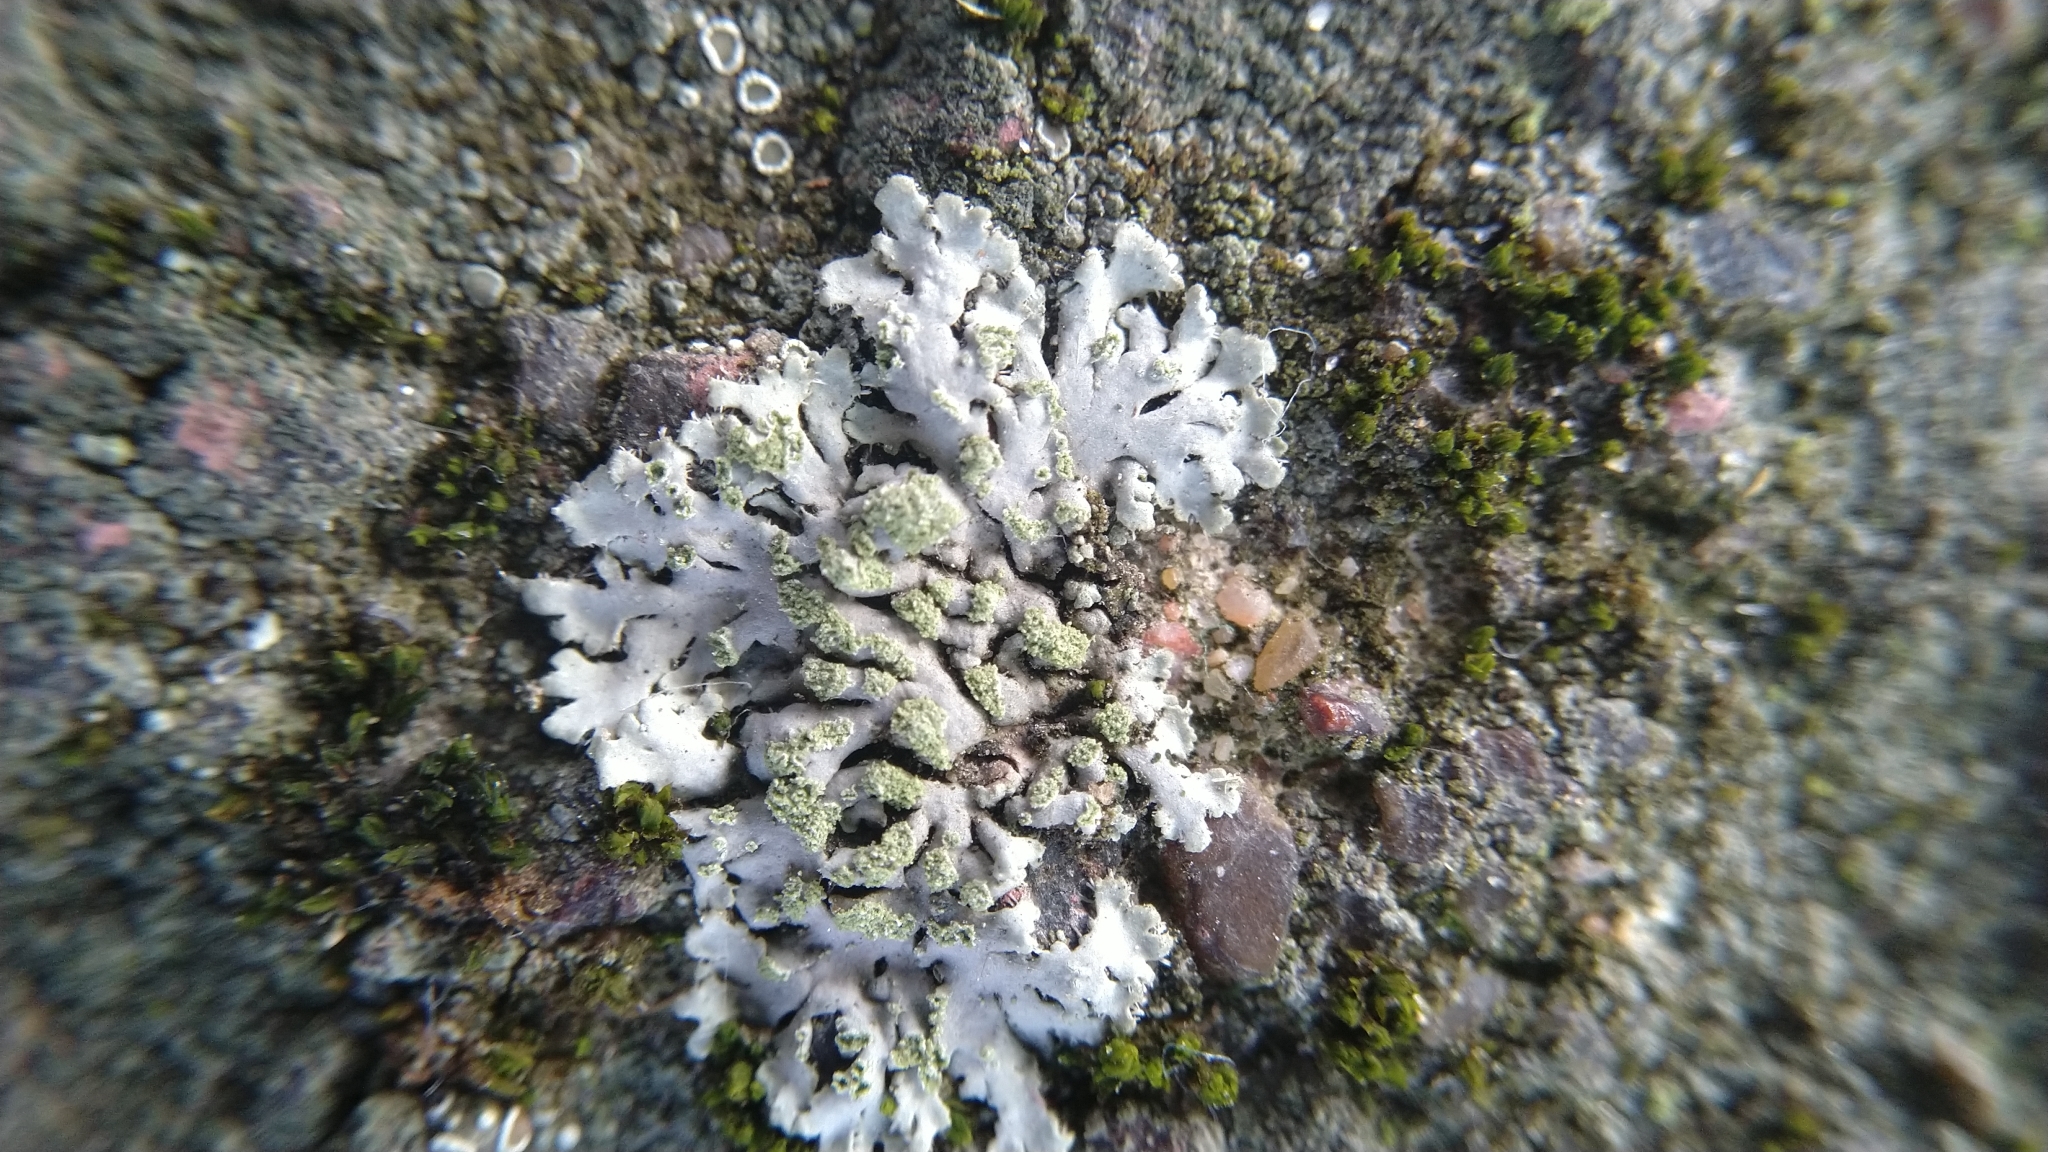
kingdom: Fungi
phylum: Ascomycota
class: Lecanoromycetes
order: Caliciales
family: Physciaceae
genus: Phaeophyscia
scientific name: Phaeophyscia orbicularis
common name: Mealy shadow lichen
